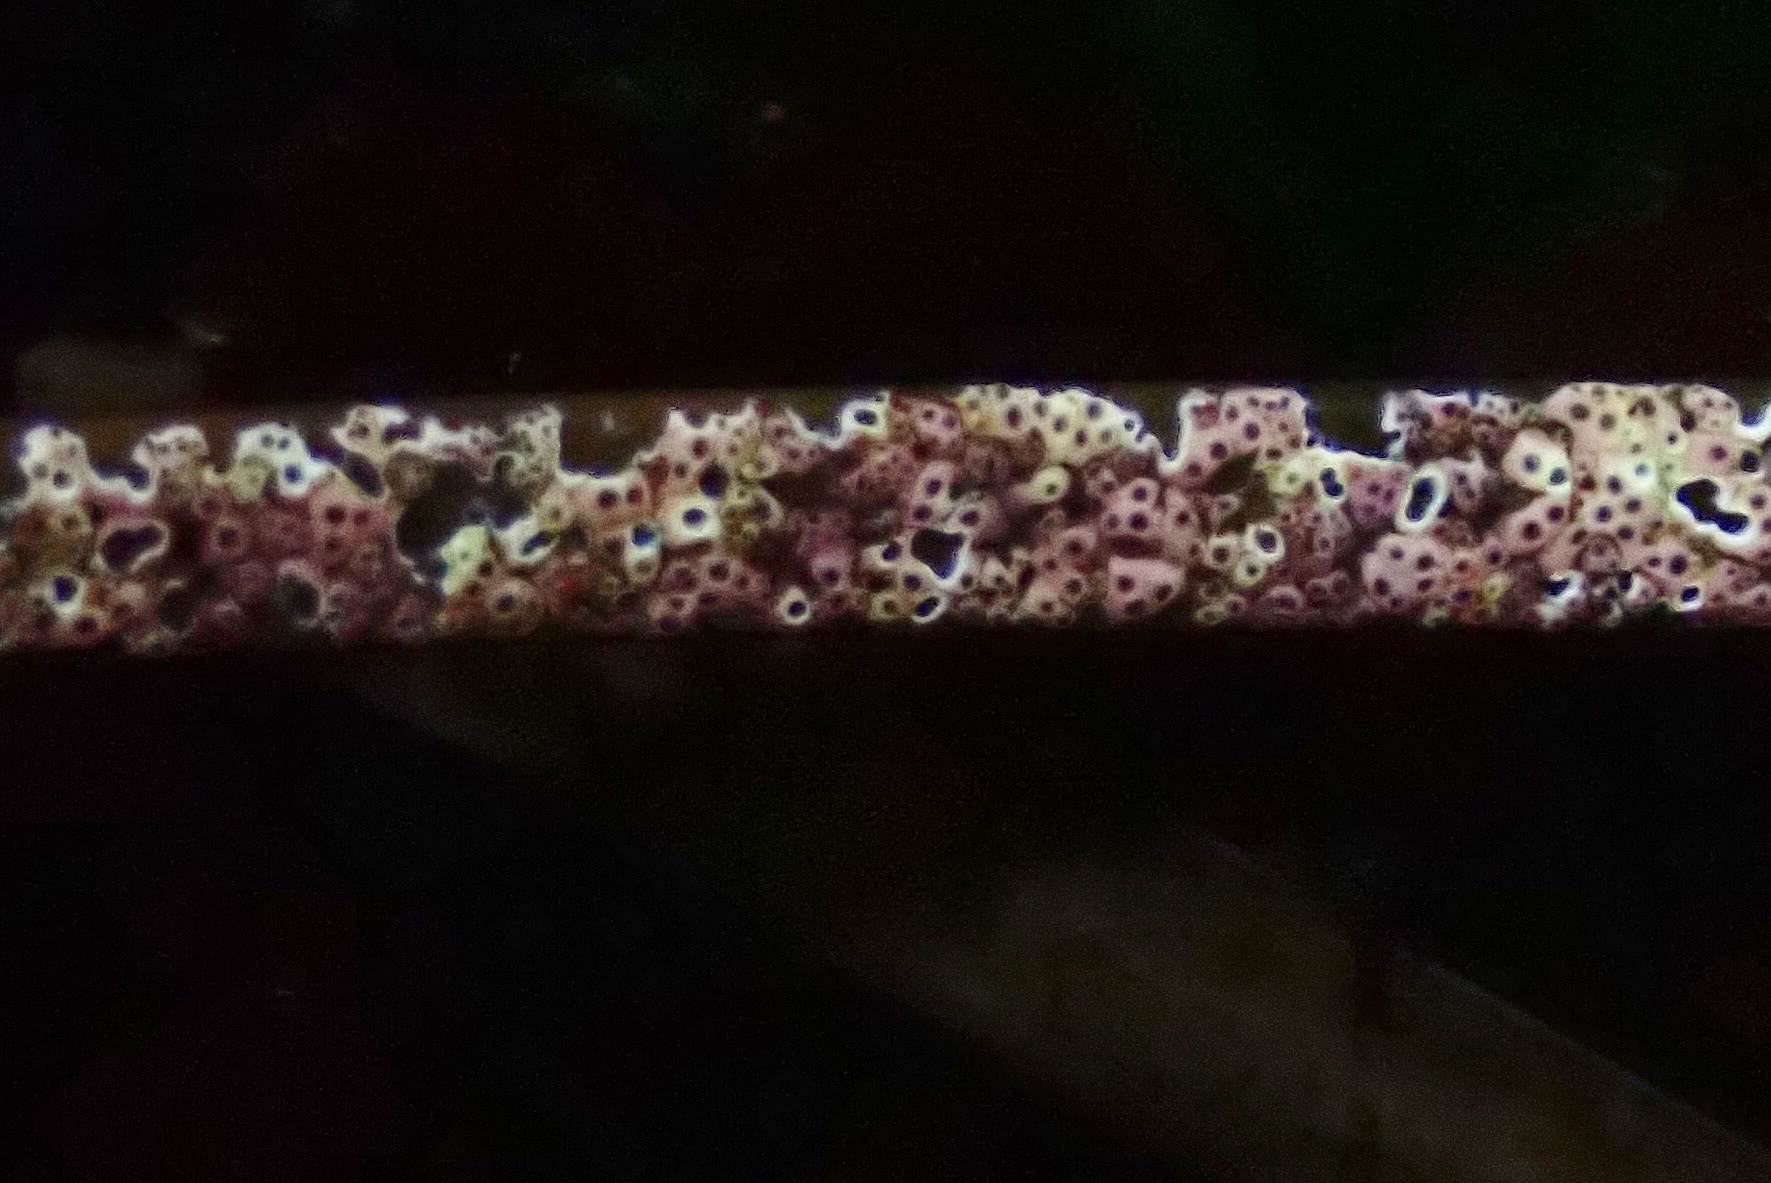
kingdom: Plantae
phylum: Rhodophyta
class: Florideophyceae
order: Corallinales
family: Hapalidiaceae
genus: Melobesia
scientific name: Melobesia mediocris
